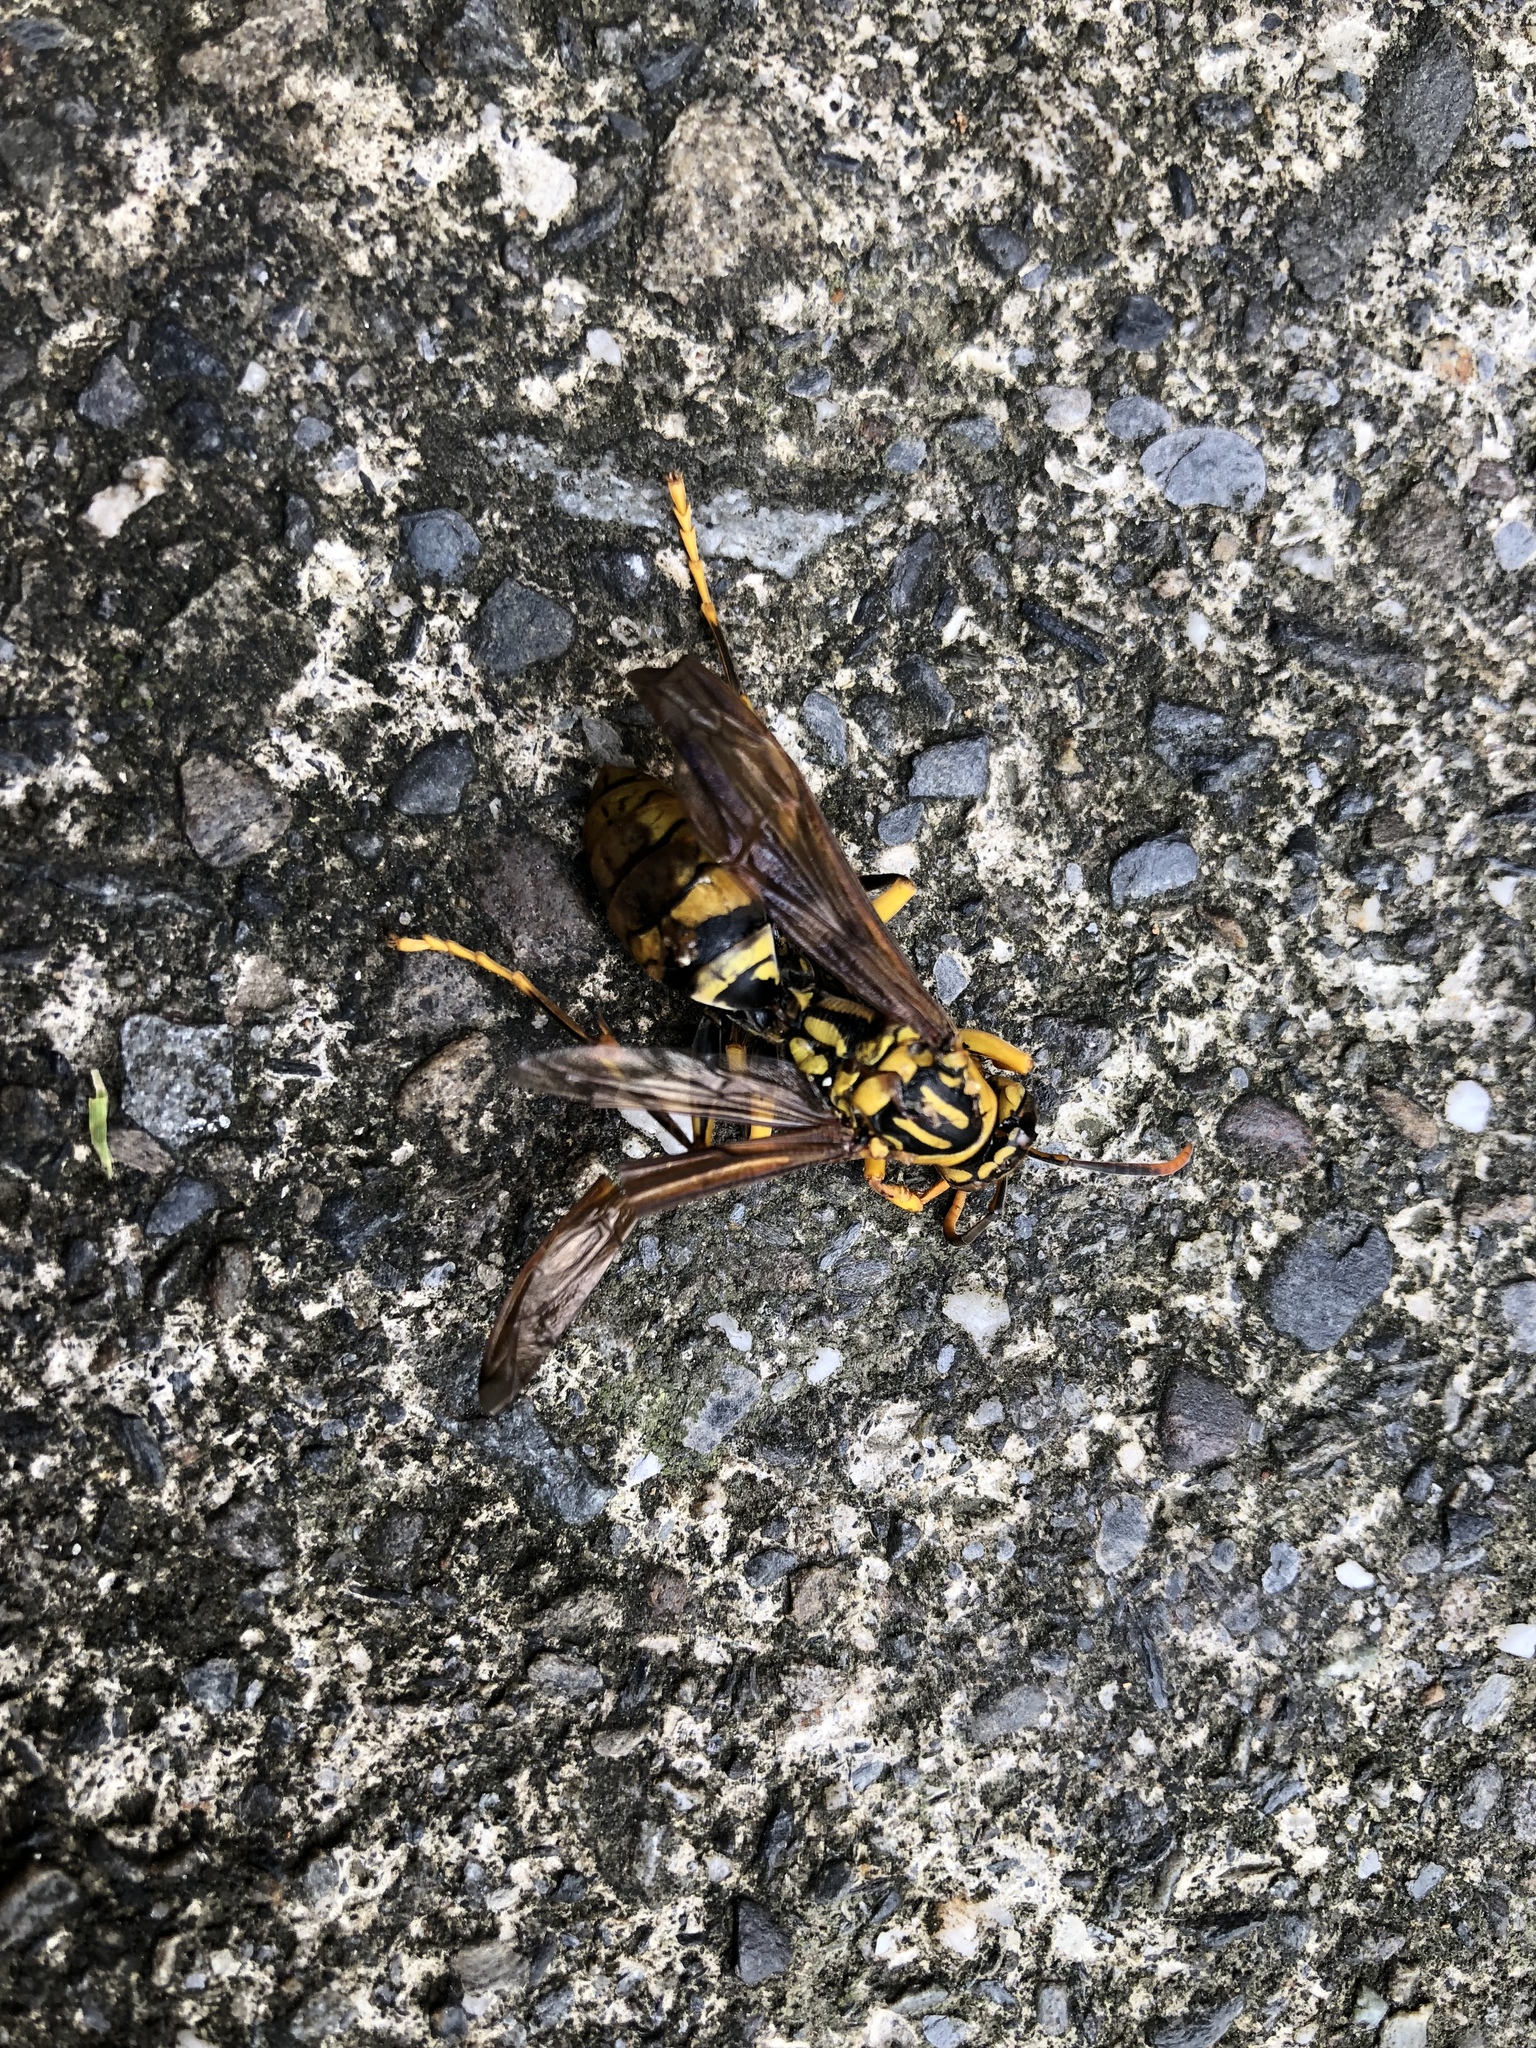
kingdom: Animalia
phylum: Arthropoda
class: Insecta
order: Hymenoptera
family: Eumenidae
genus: Polistes
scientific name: Polistes rothneyi
